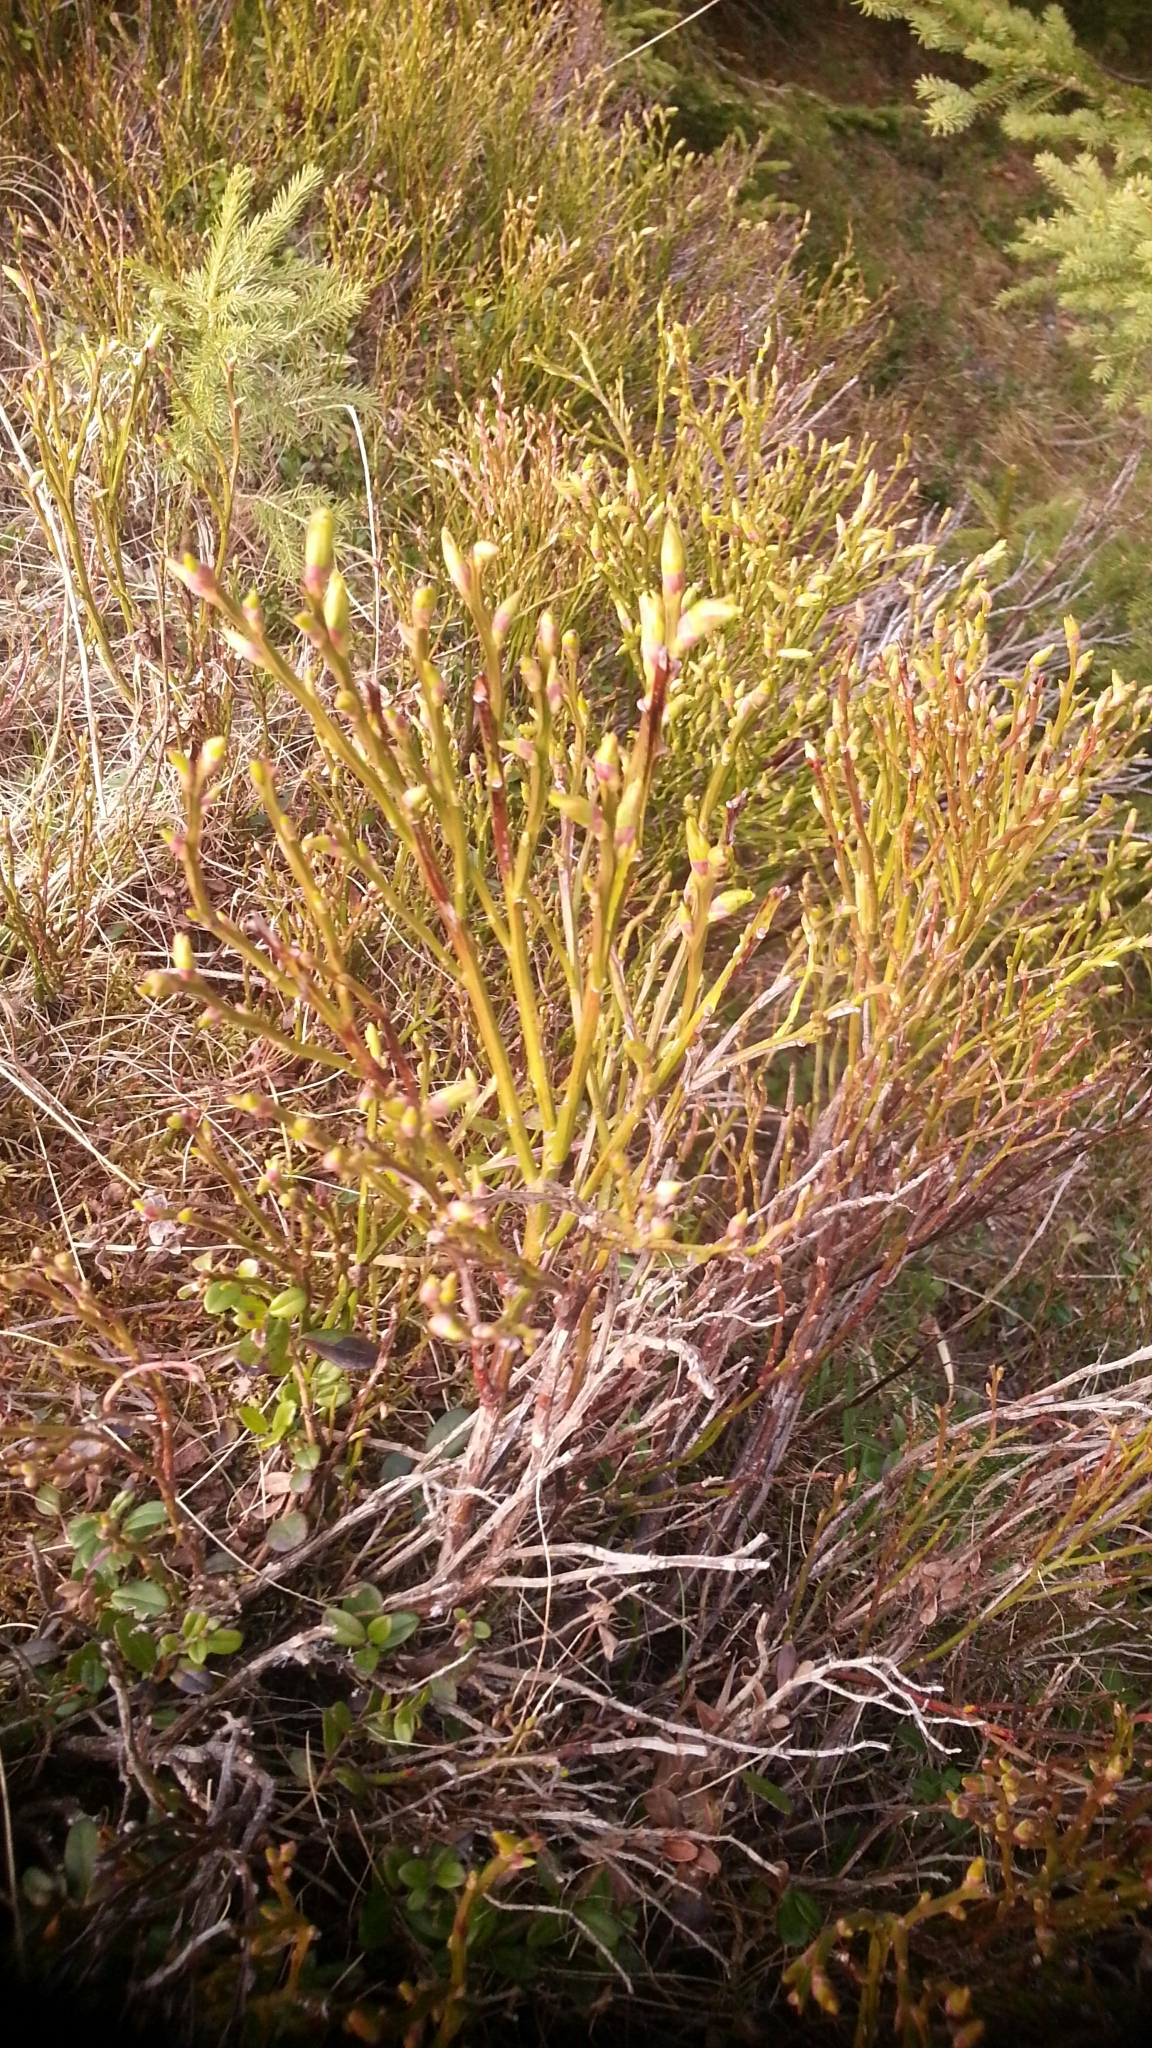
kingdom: Plantae
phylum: Tracheophyta
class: Magnoliopsida
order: Ericales
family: Ericaceae
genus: Vaccinium
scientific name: Vaccinium myrtillus
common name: Bilberry
